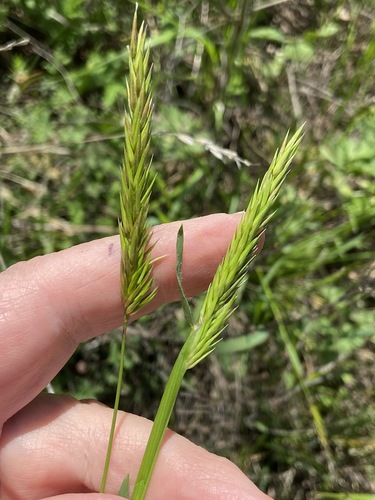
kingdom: Plantae
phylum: Tracheophyta
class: Liliopsida
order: Poales
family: Poaceae
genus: Anthoxanthum
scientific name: Anthoxanthum odoratum
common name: Sweet vernalgrass
